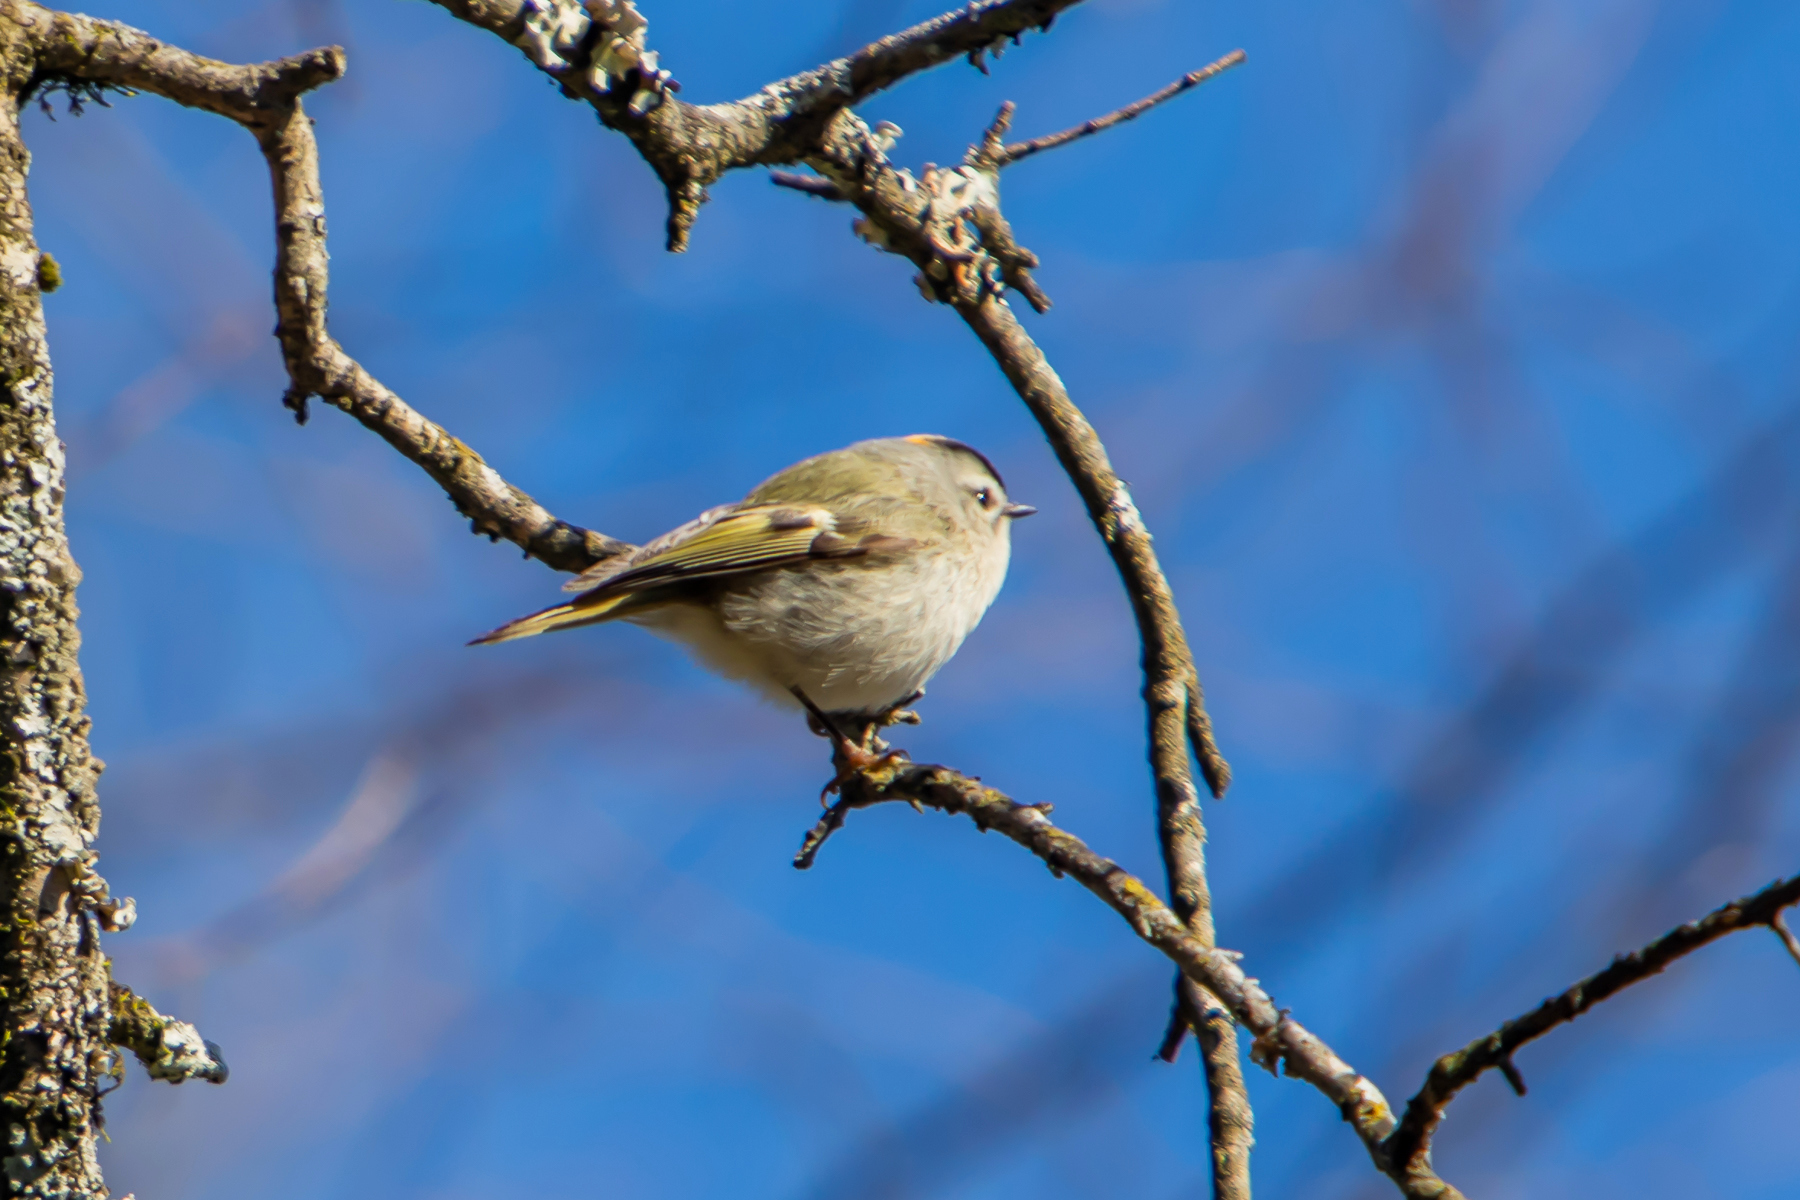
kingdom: Animalia
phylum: Chordata
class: Aves
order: Passeriformes
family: Regulidae
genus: Regulus
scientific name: Regulus satrapa
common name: Golden-crowned kinglet
